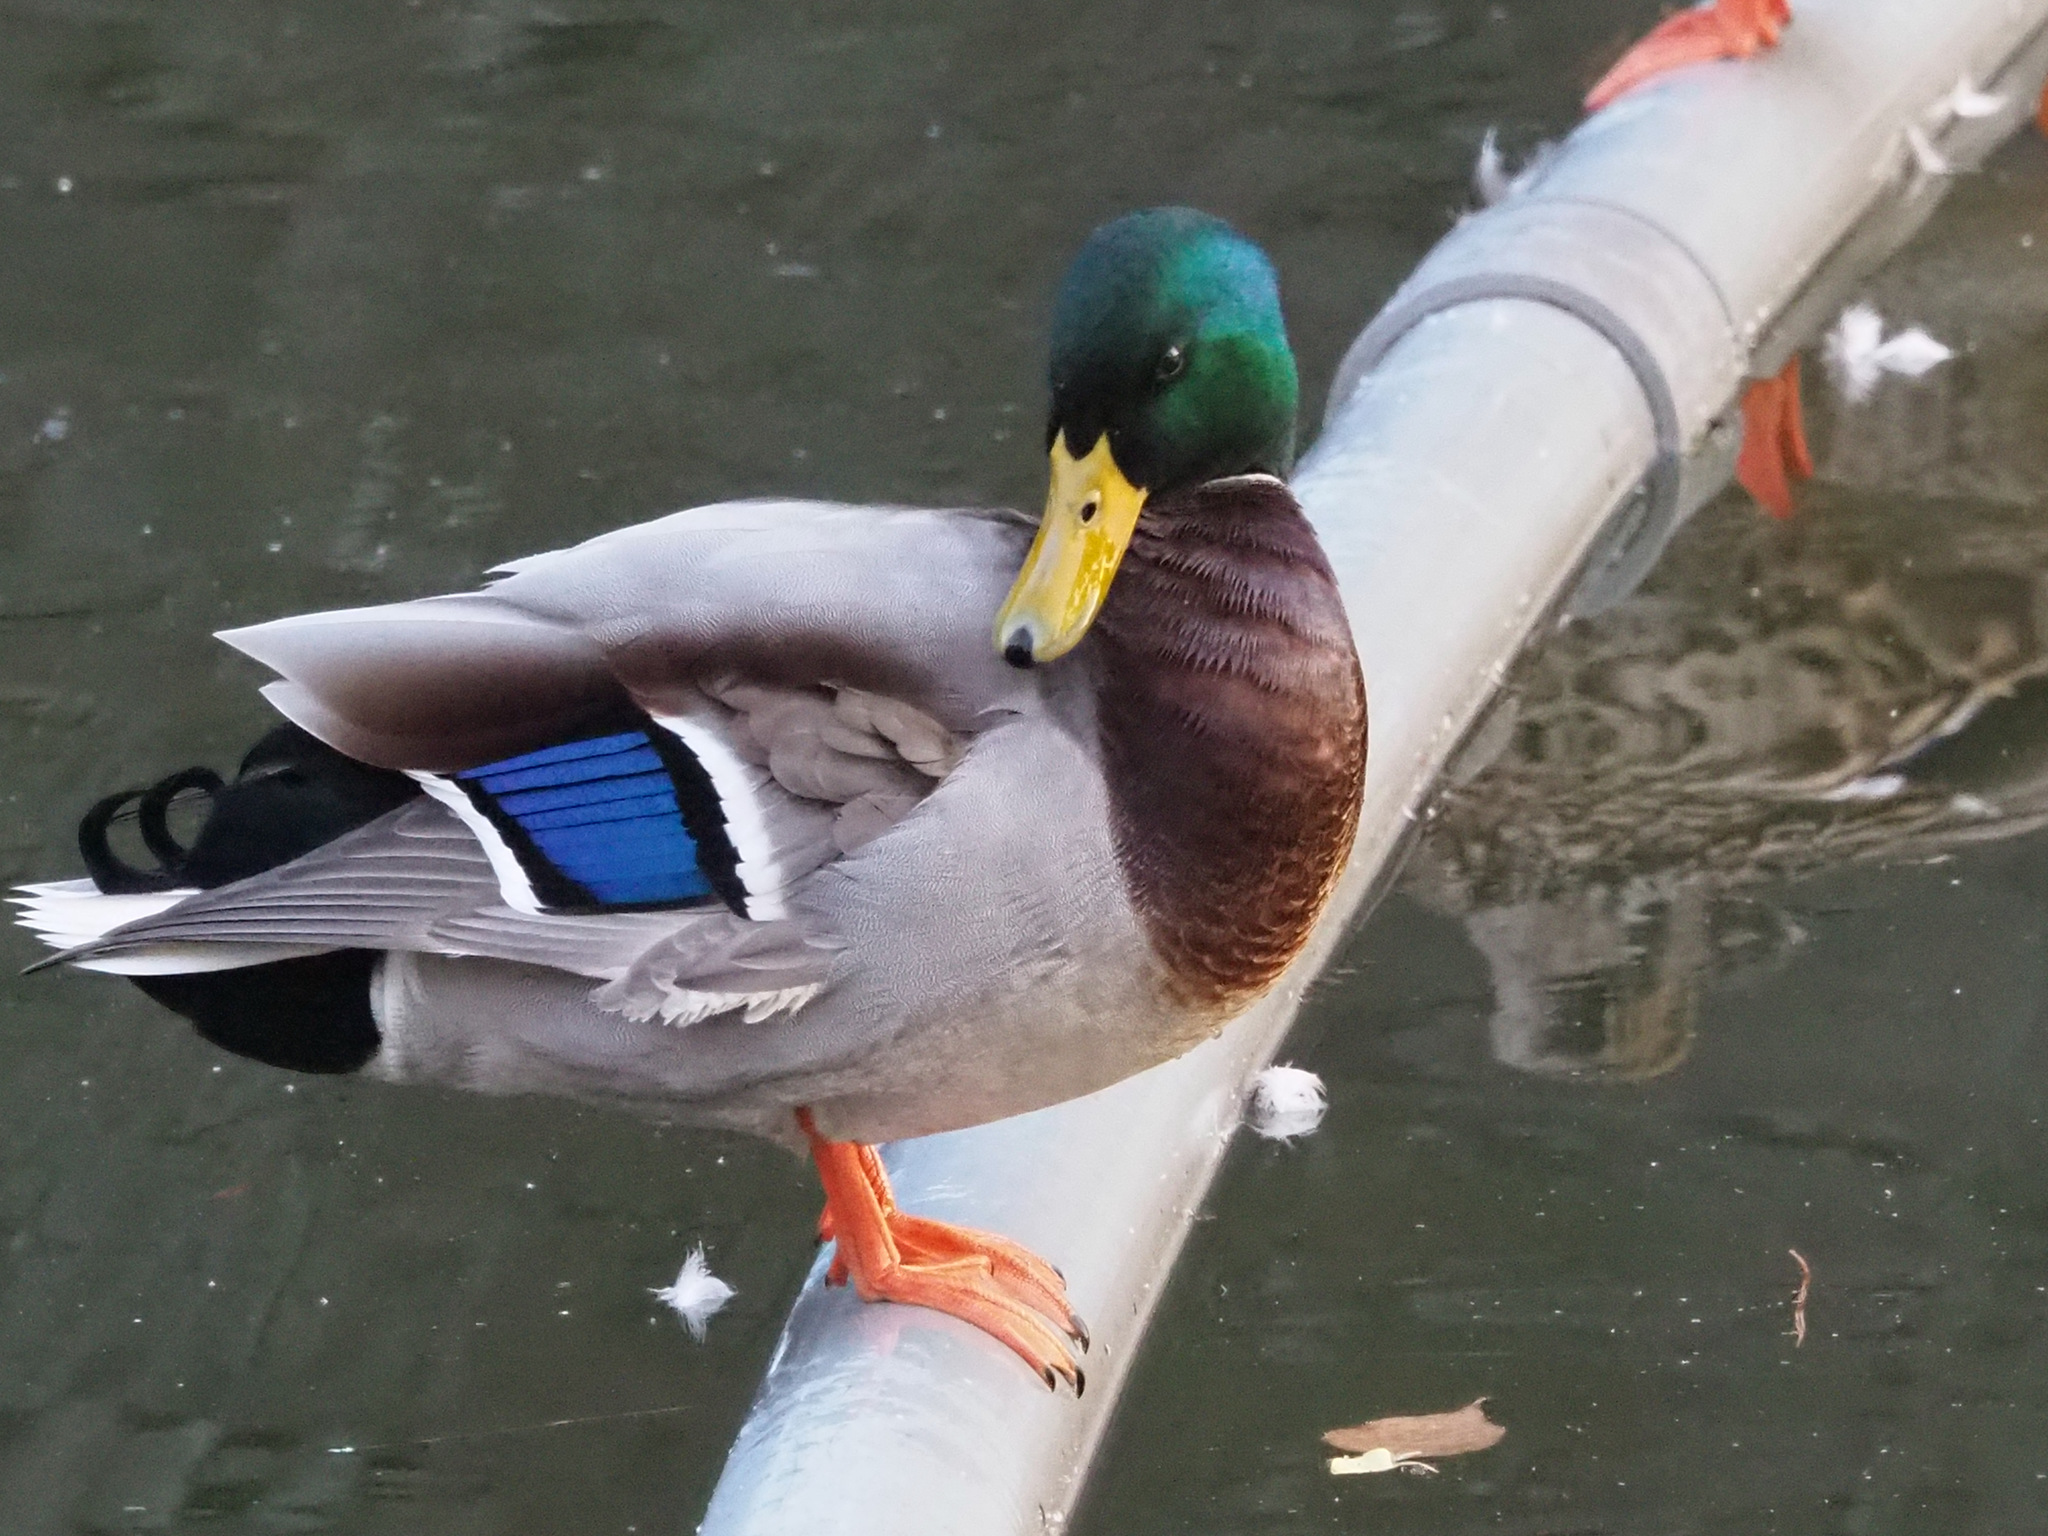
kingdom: Animalia
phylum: Chordata
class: Aves
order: Anseriformes
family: Anatidae
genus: Anas
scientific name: Anas platyrhynchos
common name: Mallard
